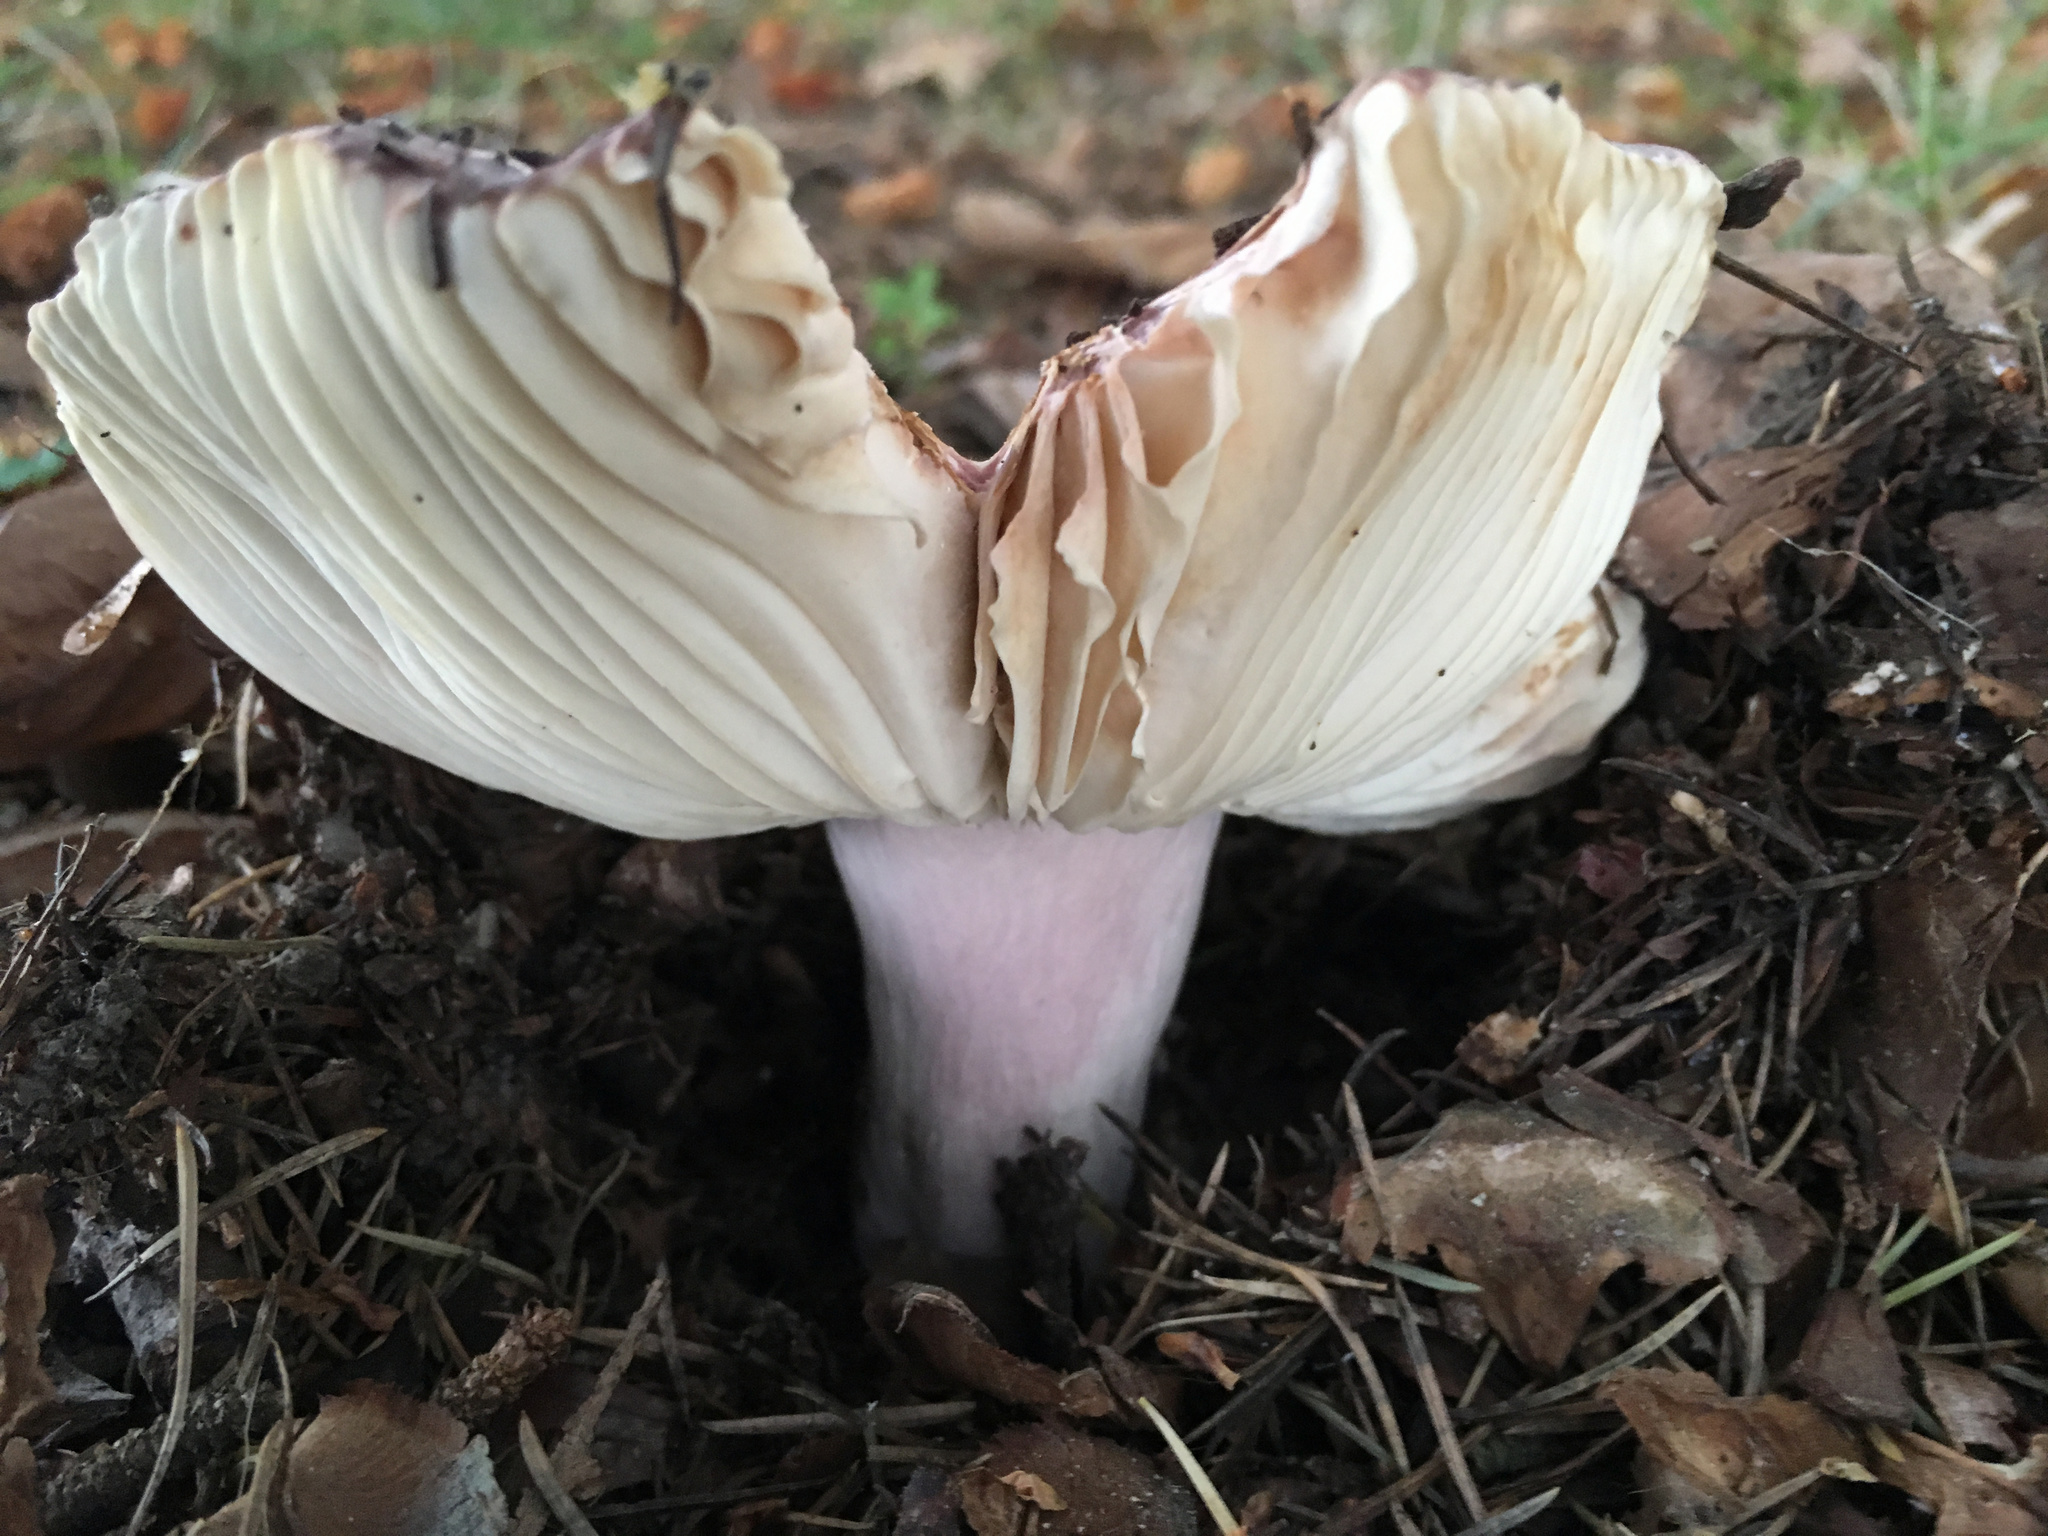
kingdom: Fungi
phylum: Basidiomycota
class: Agaricomycetes
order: Russulales
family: Russulaceae
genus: Russula
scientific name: Russula grisea
